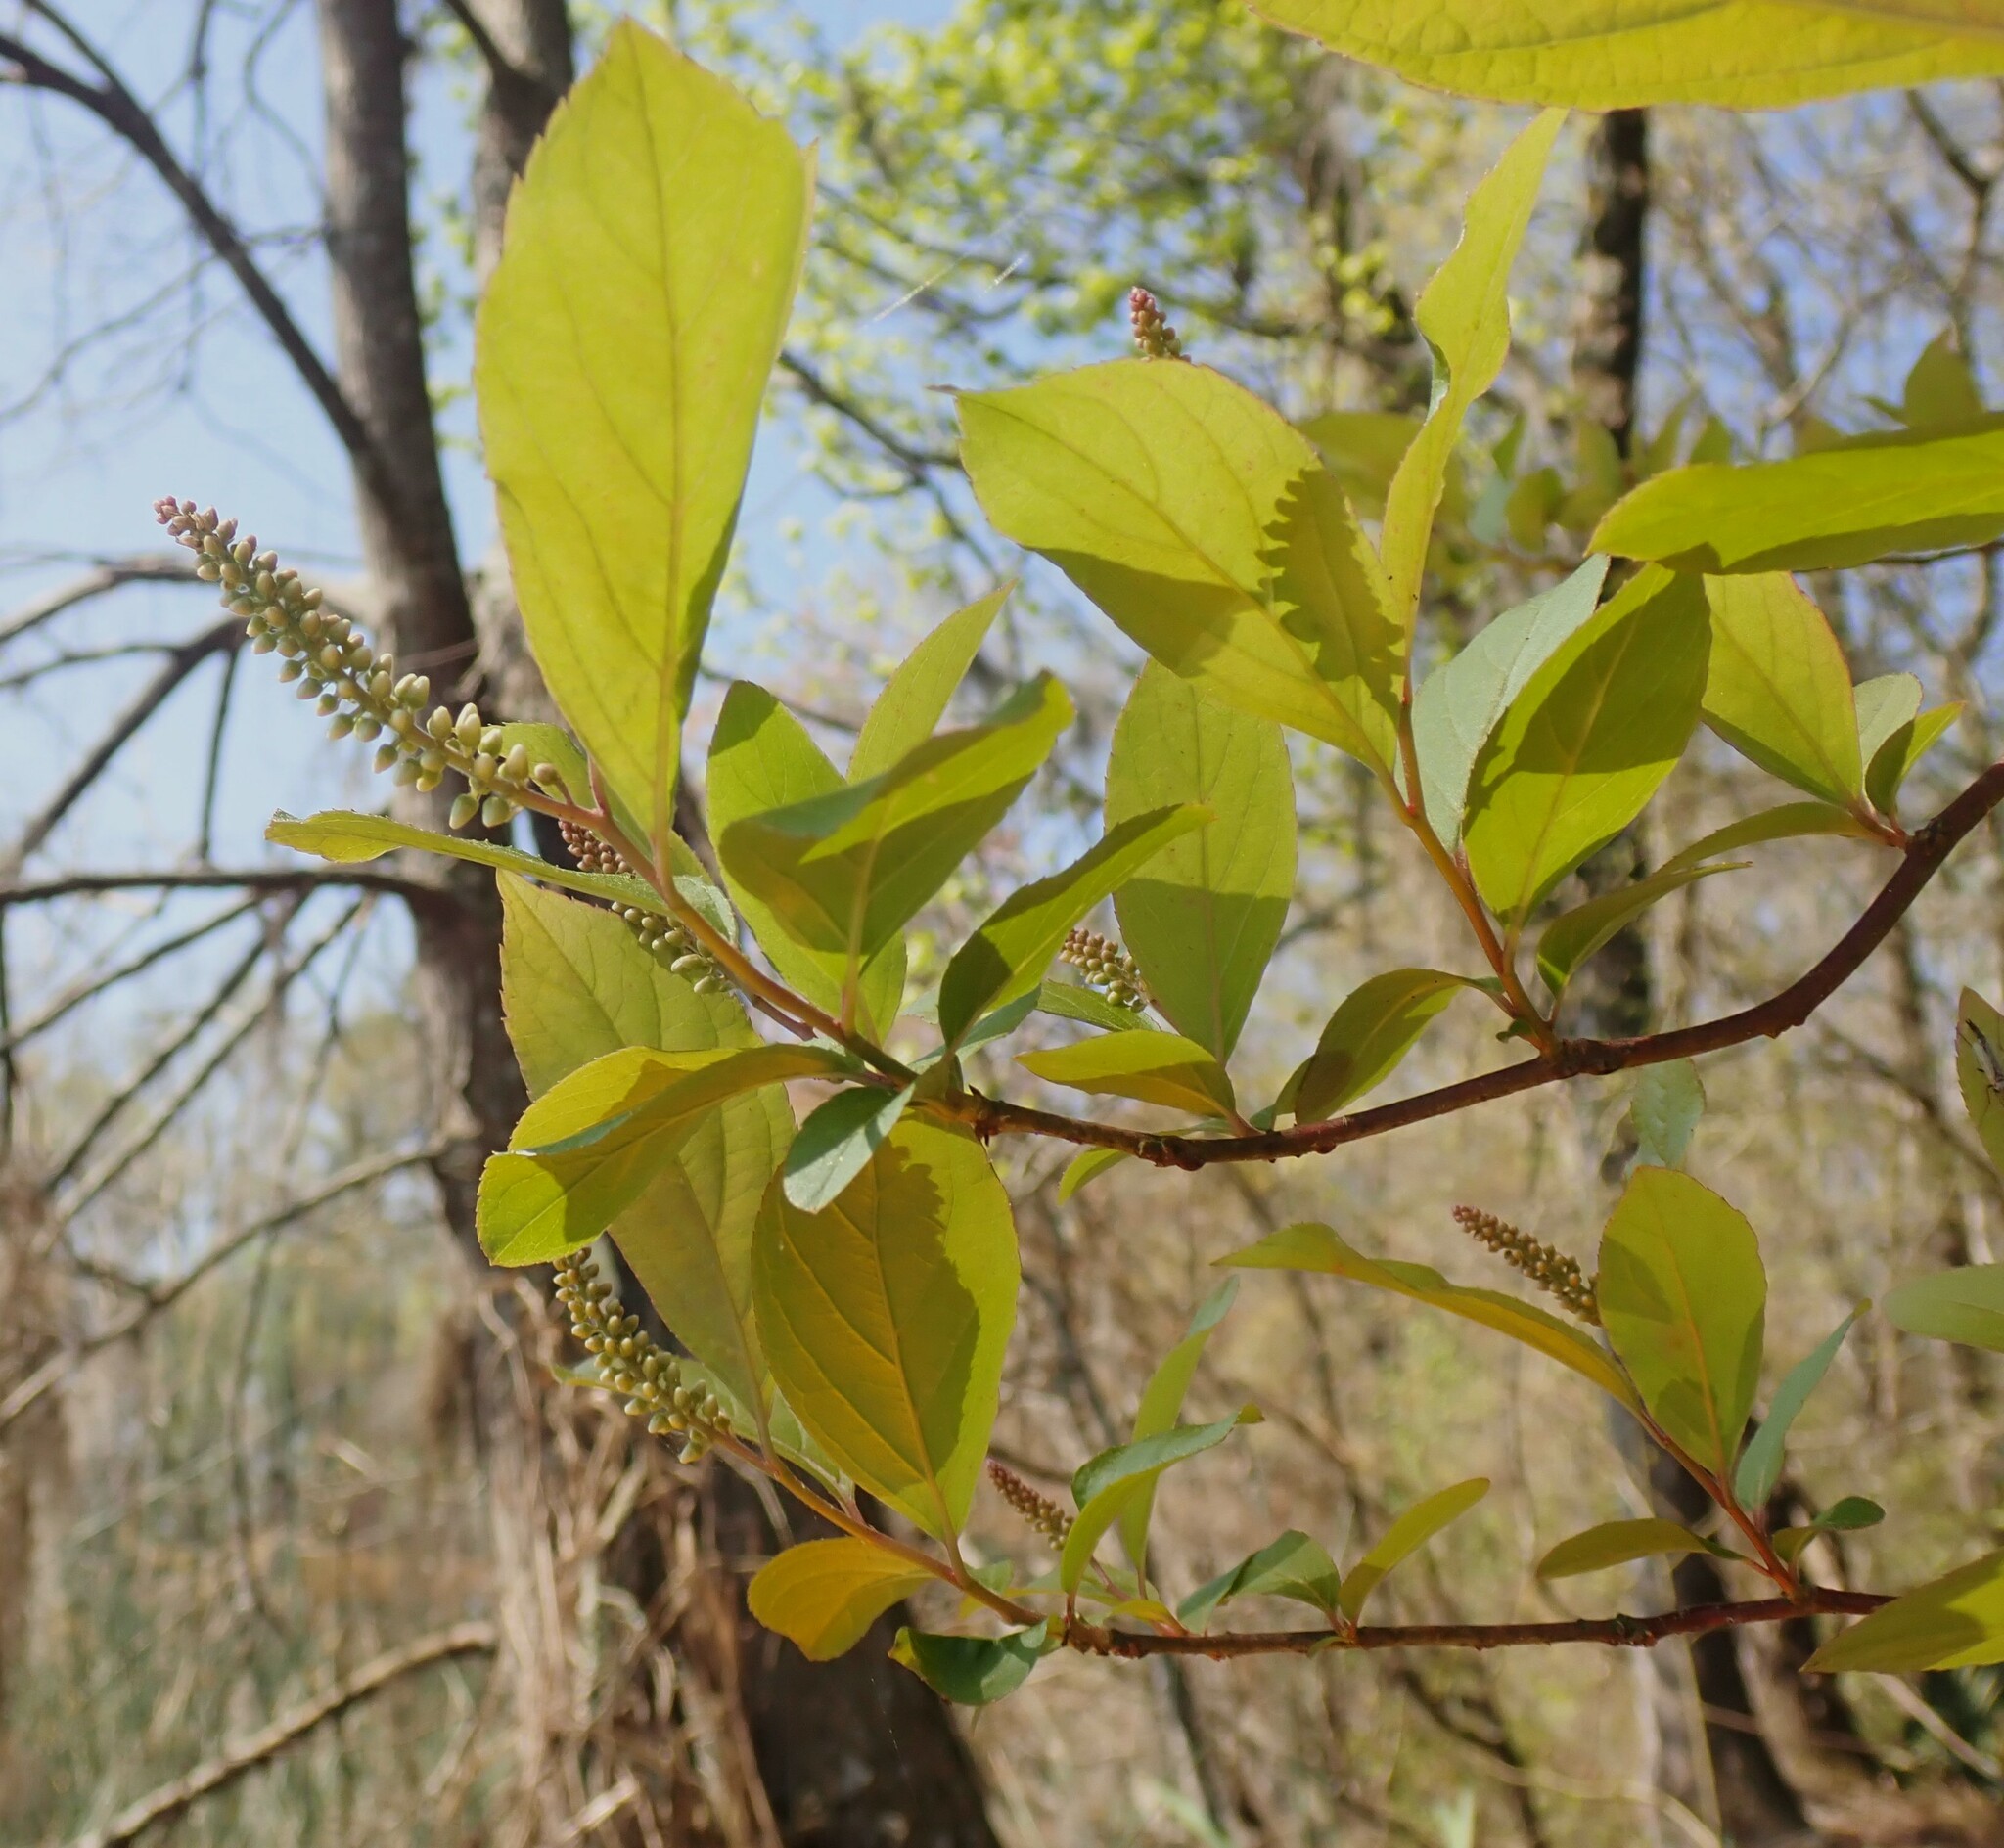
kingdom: Plantae
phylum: Tracheophyta
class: Magnoliopsida
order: Saxifragales
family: Iteaceae
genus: Itea
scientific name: Itea virginica
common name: Sweetspire
